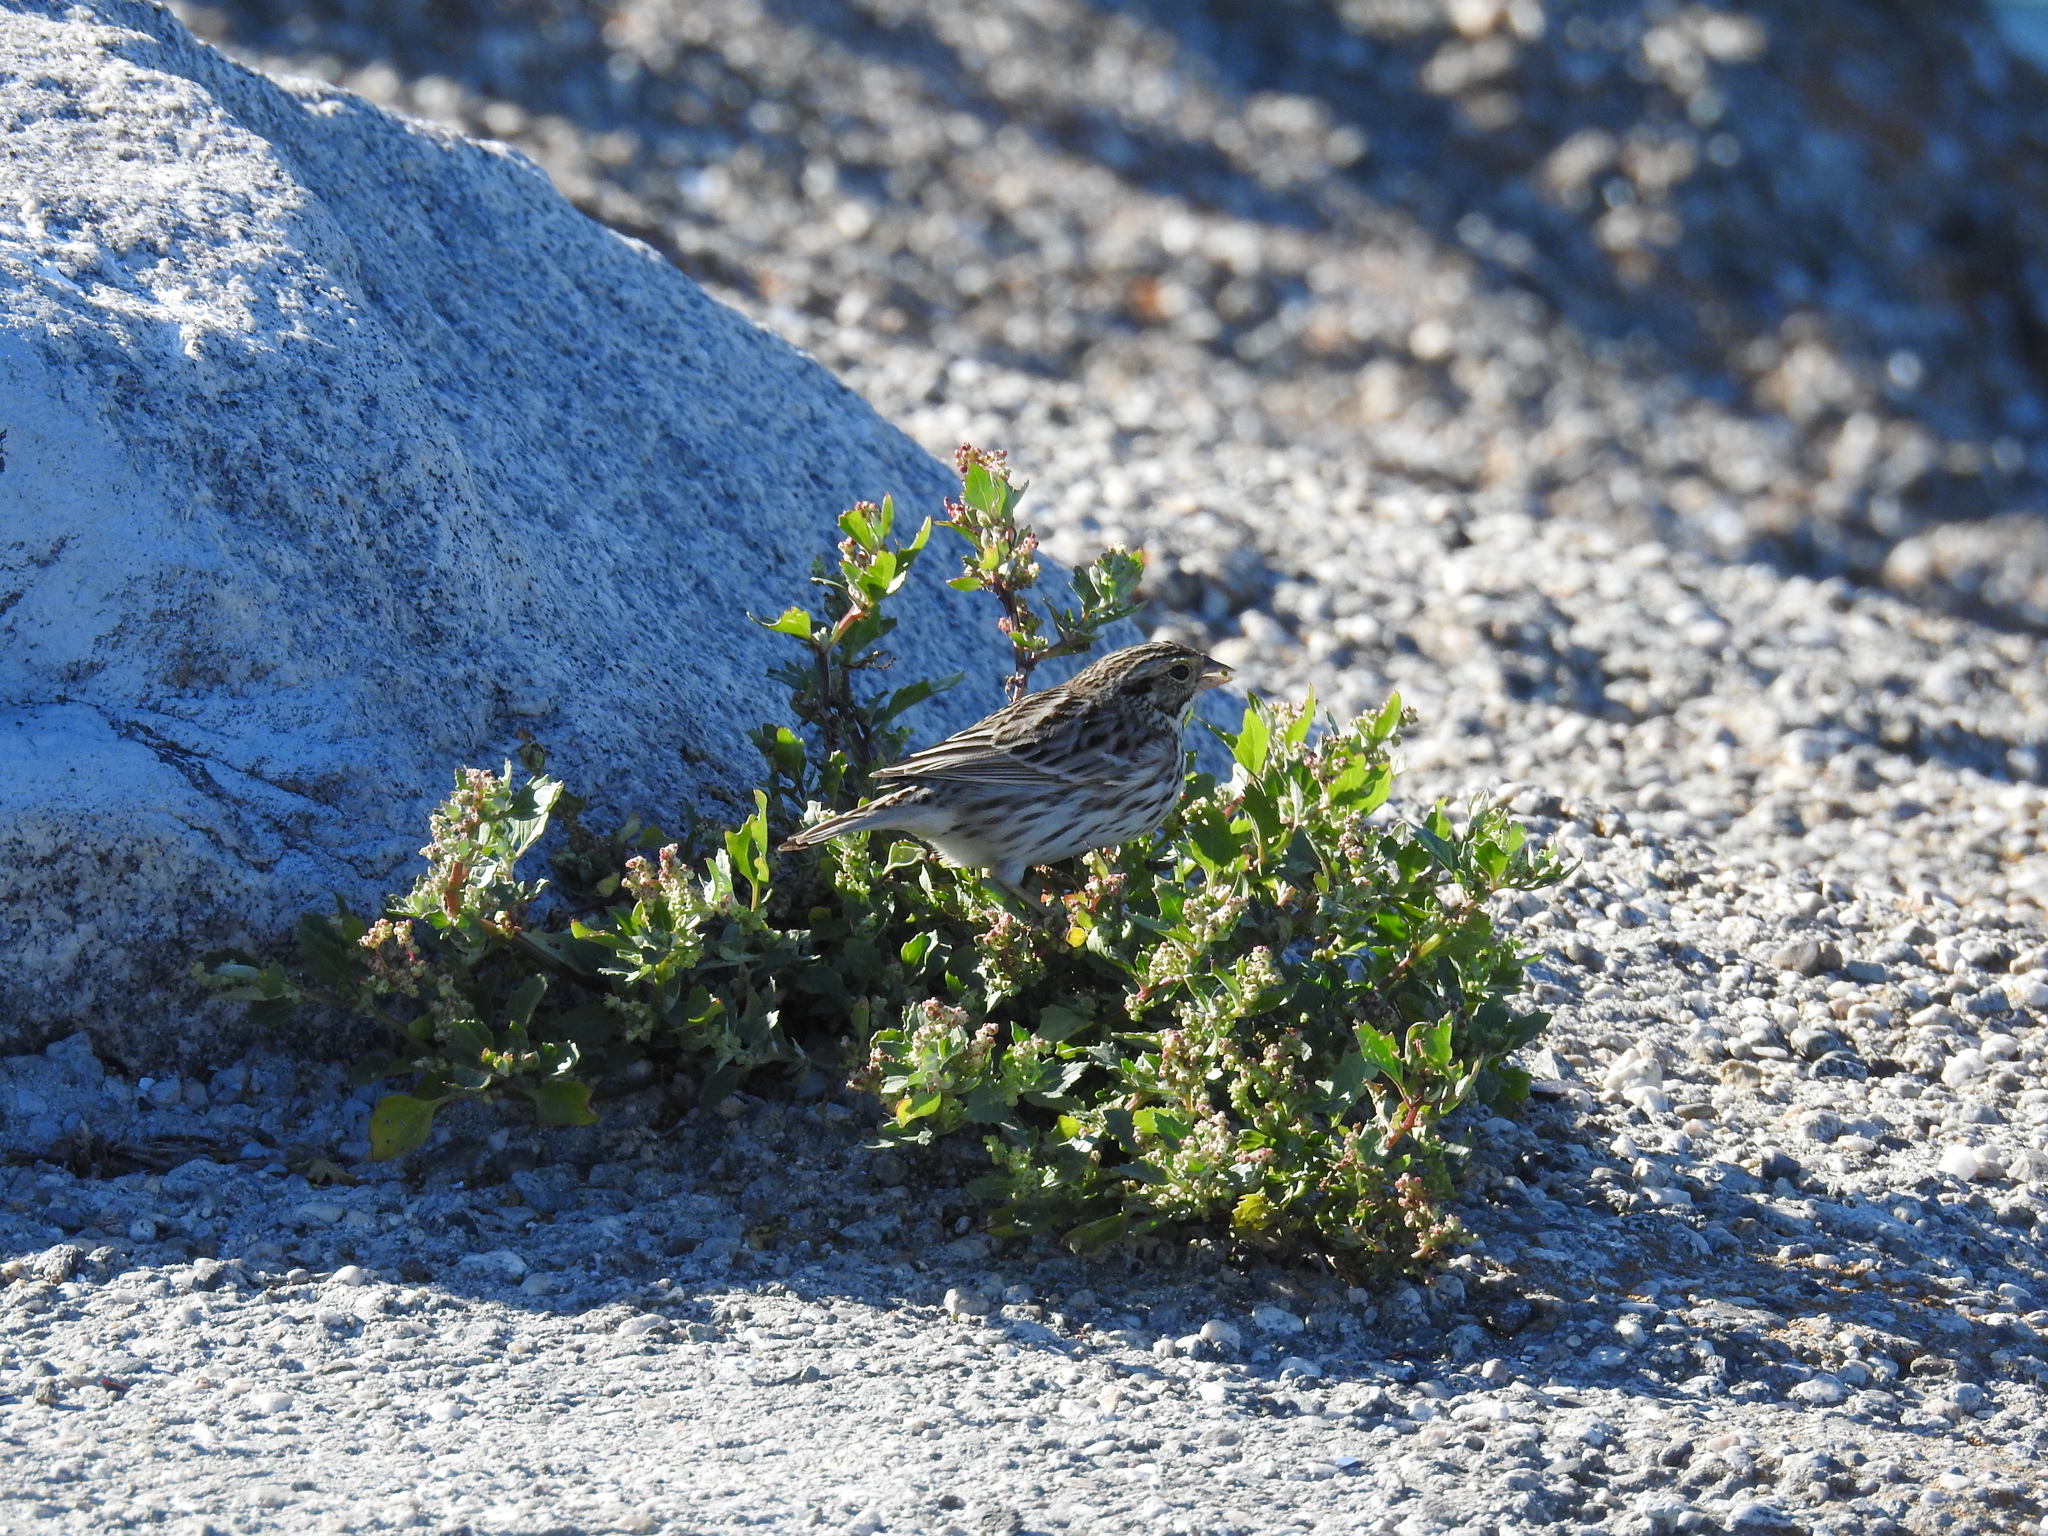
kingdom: Animalia
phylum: Chordata
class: Aves
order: Passeriformes
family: Passerellidae
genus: Passerculus
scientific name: Passerculus sandwichensis
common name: Savannah sparrow
